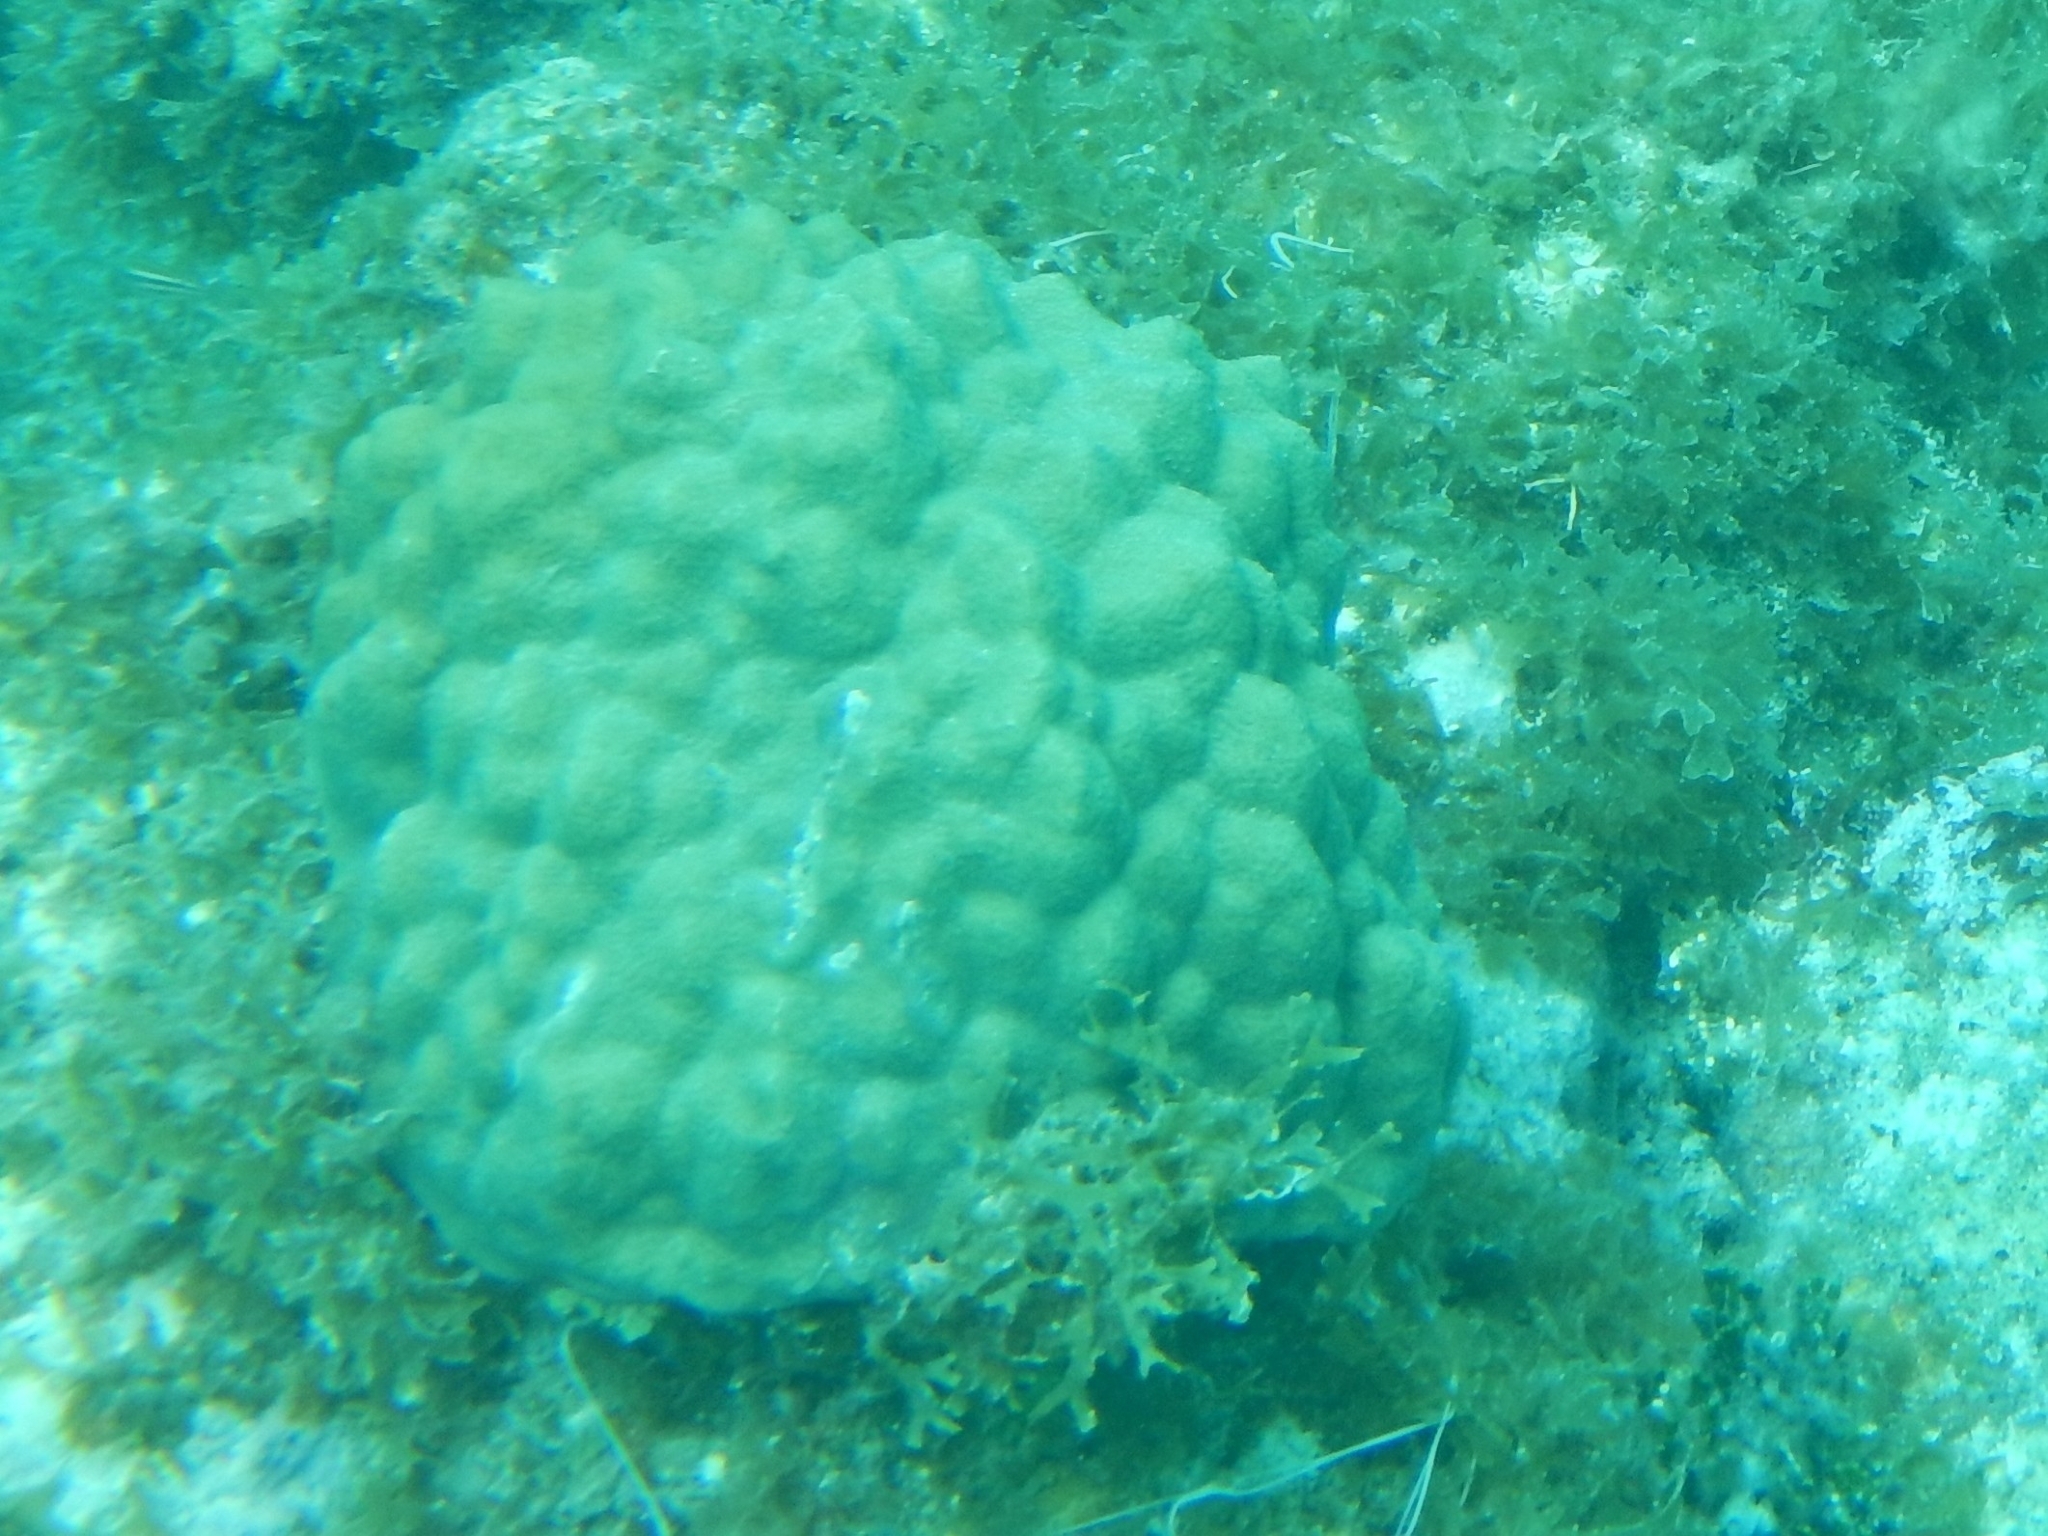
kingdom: Animalia
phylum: Cnidaria
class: Anthozoa
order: Scleractinia
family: Poritidae
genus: Porites
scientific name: Porites astreoides
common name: Mustard hill coral
